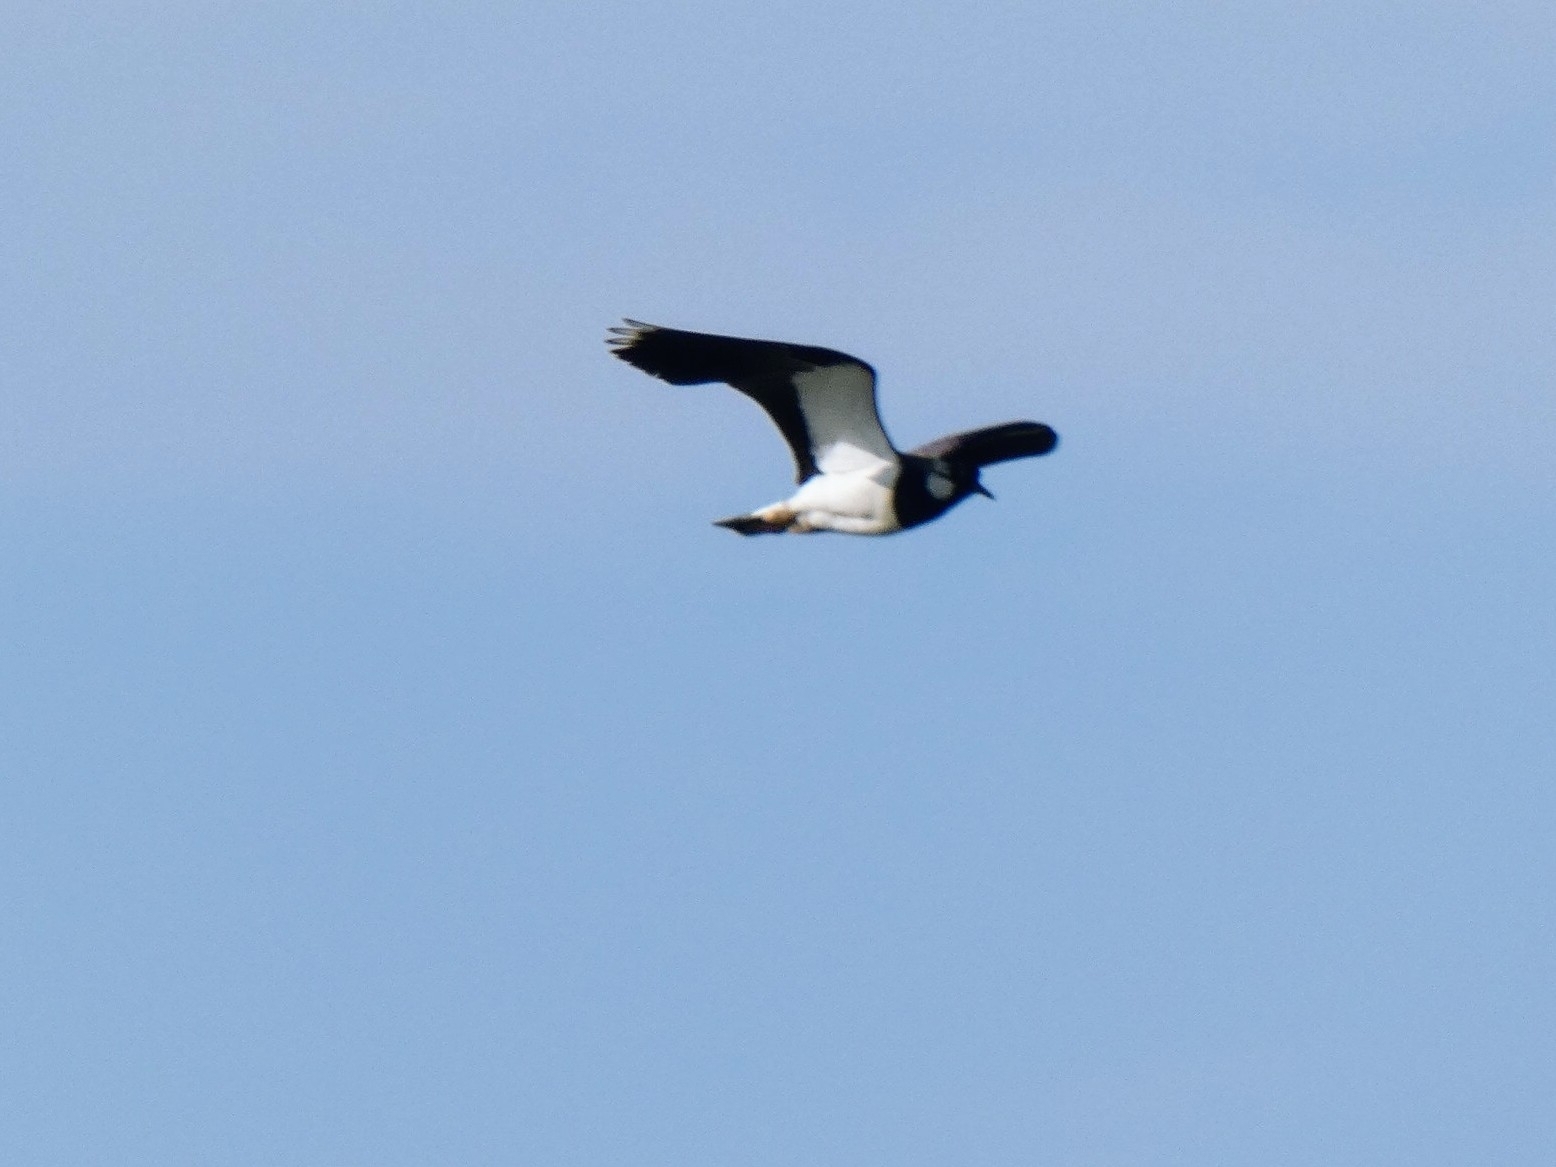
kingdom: Animalia
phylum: Chordata
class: Aves
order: Charadriiformes
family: Charadriidae
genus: Vanellus
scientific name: Vanellus vanellus
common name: Northern lapwing
